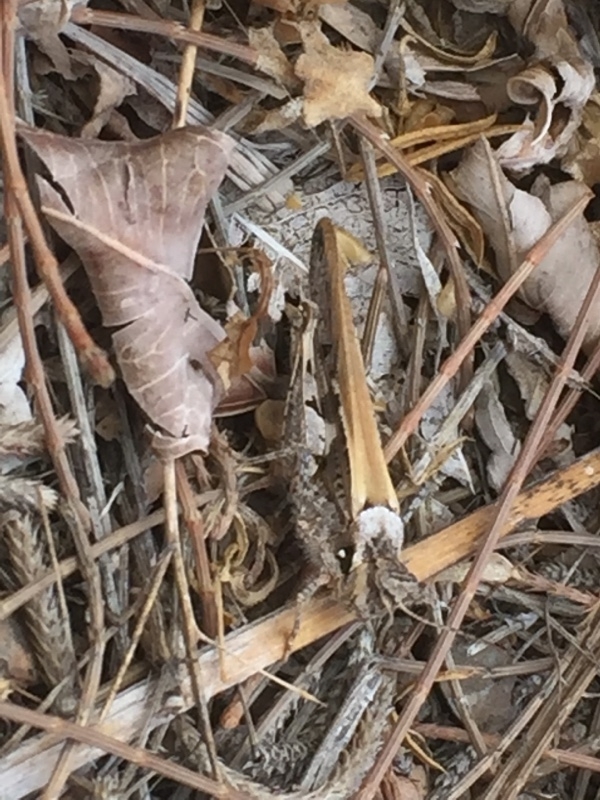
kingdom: Animalia
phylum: Arthropoda
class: Insecta
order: Orthoptera
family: Acrididae
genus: Acrotylus
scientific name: Acrotylus insubricus
